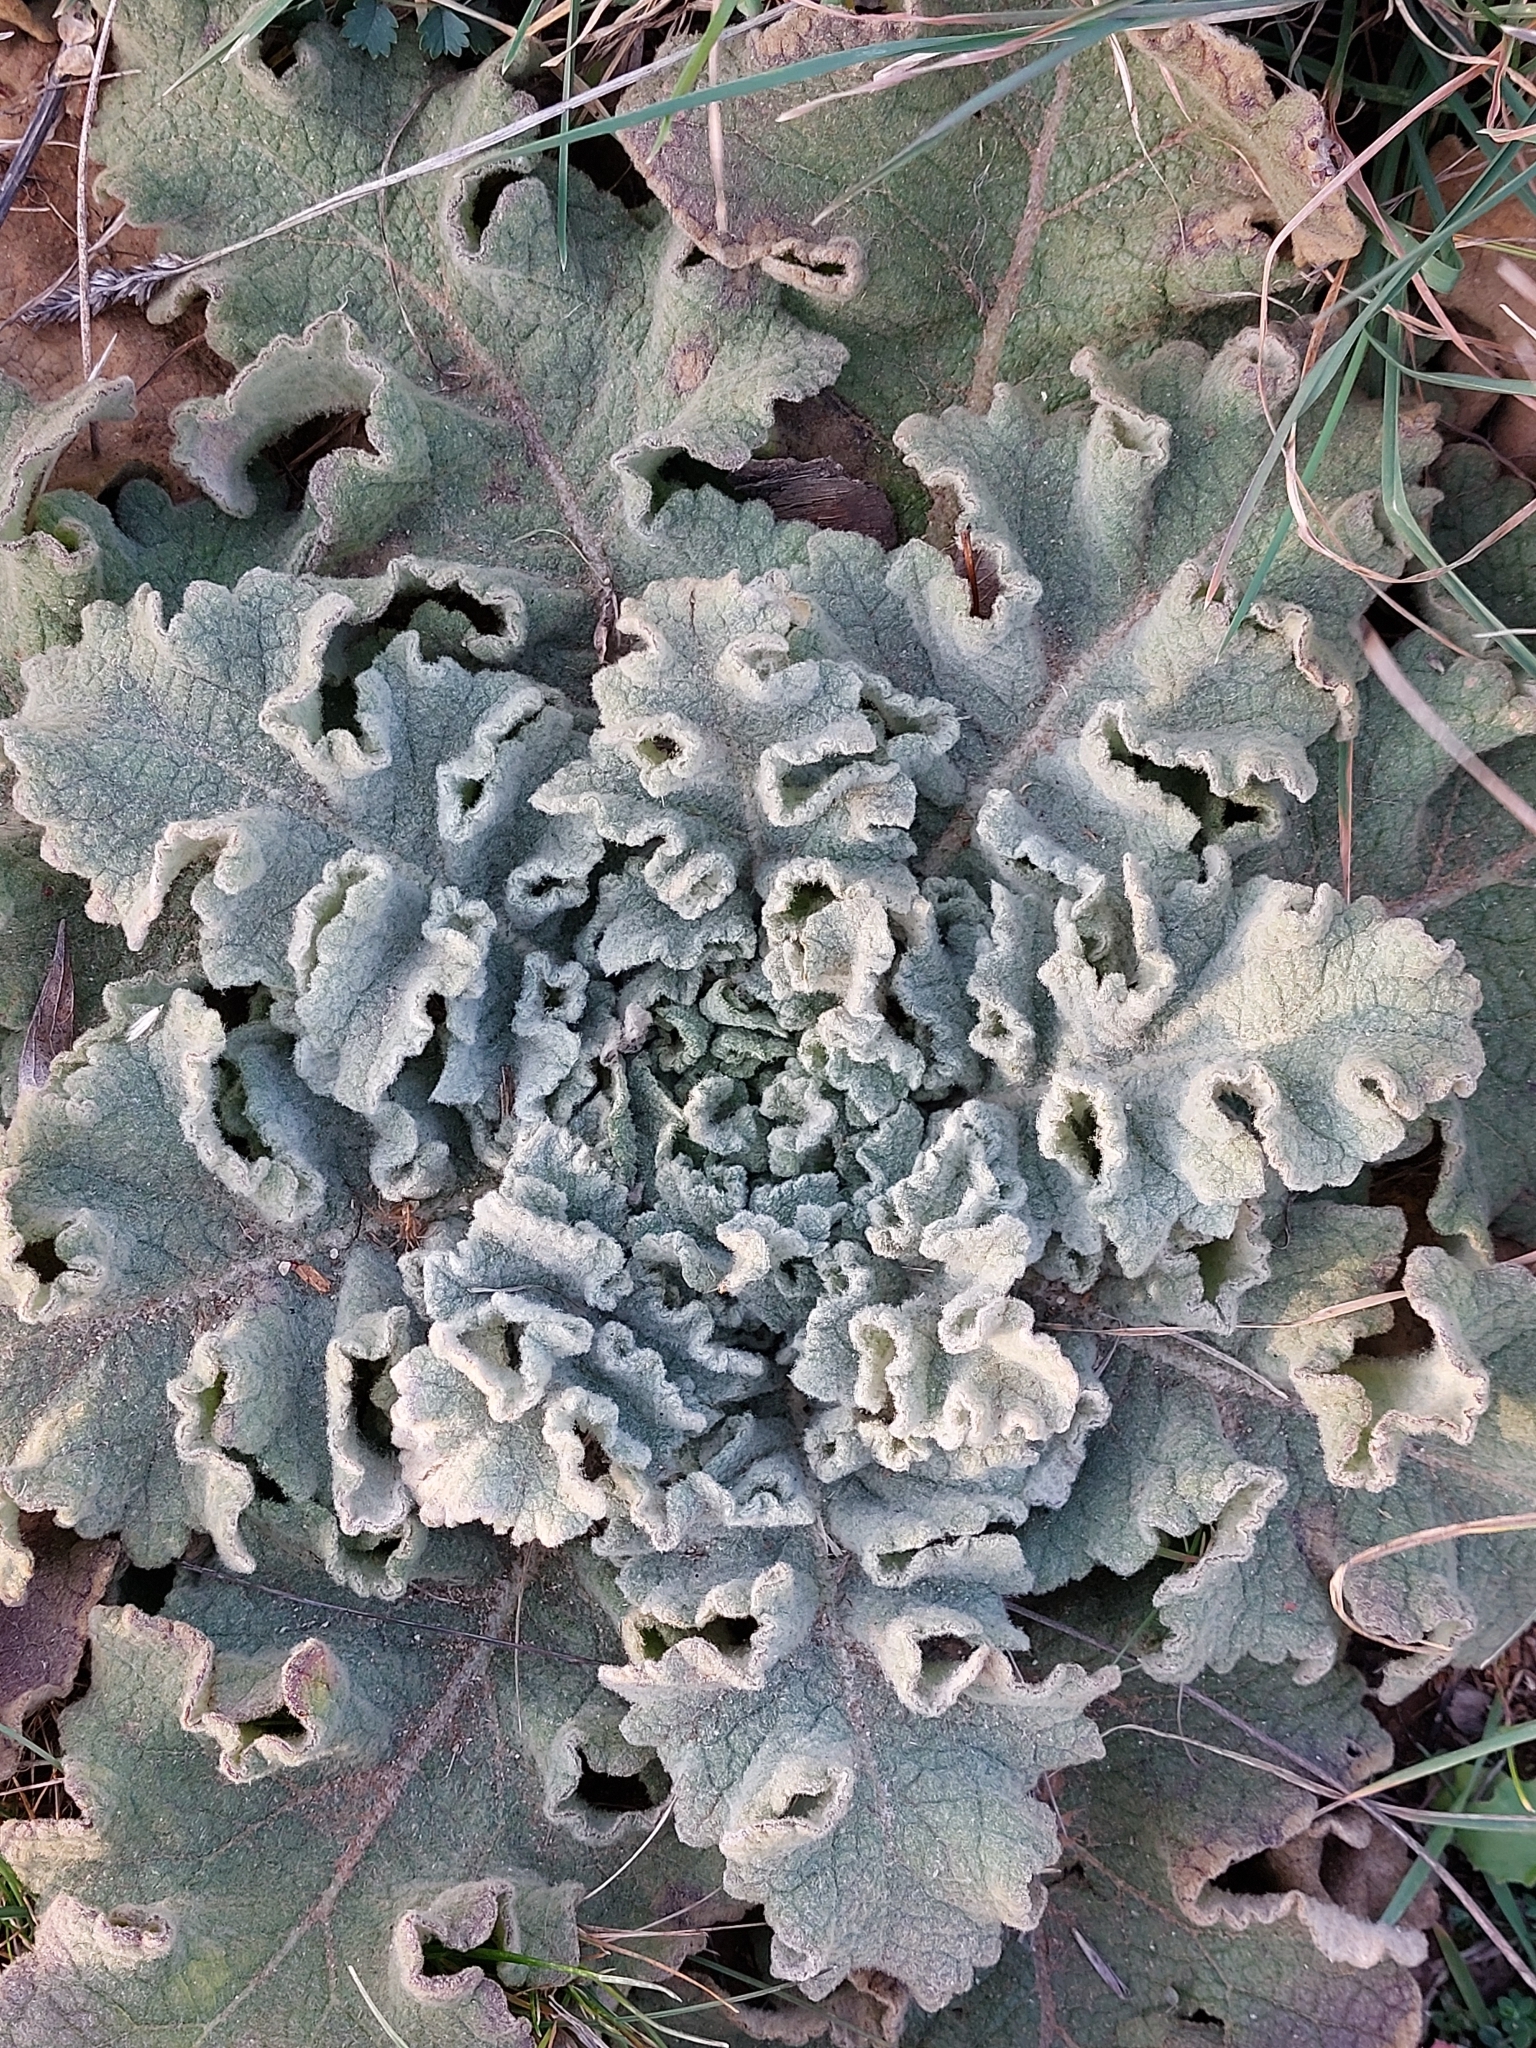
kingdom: Plantae
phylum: Tracheophyta
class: Magnoliopsida
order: Lamiales
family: Scrophulariaceae
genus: Verbascum
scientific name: Verbascum sinuatum
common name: Wavyleaf mullein
